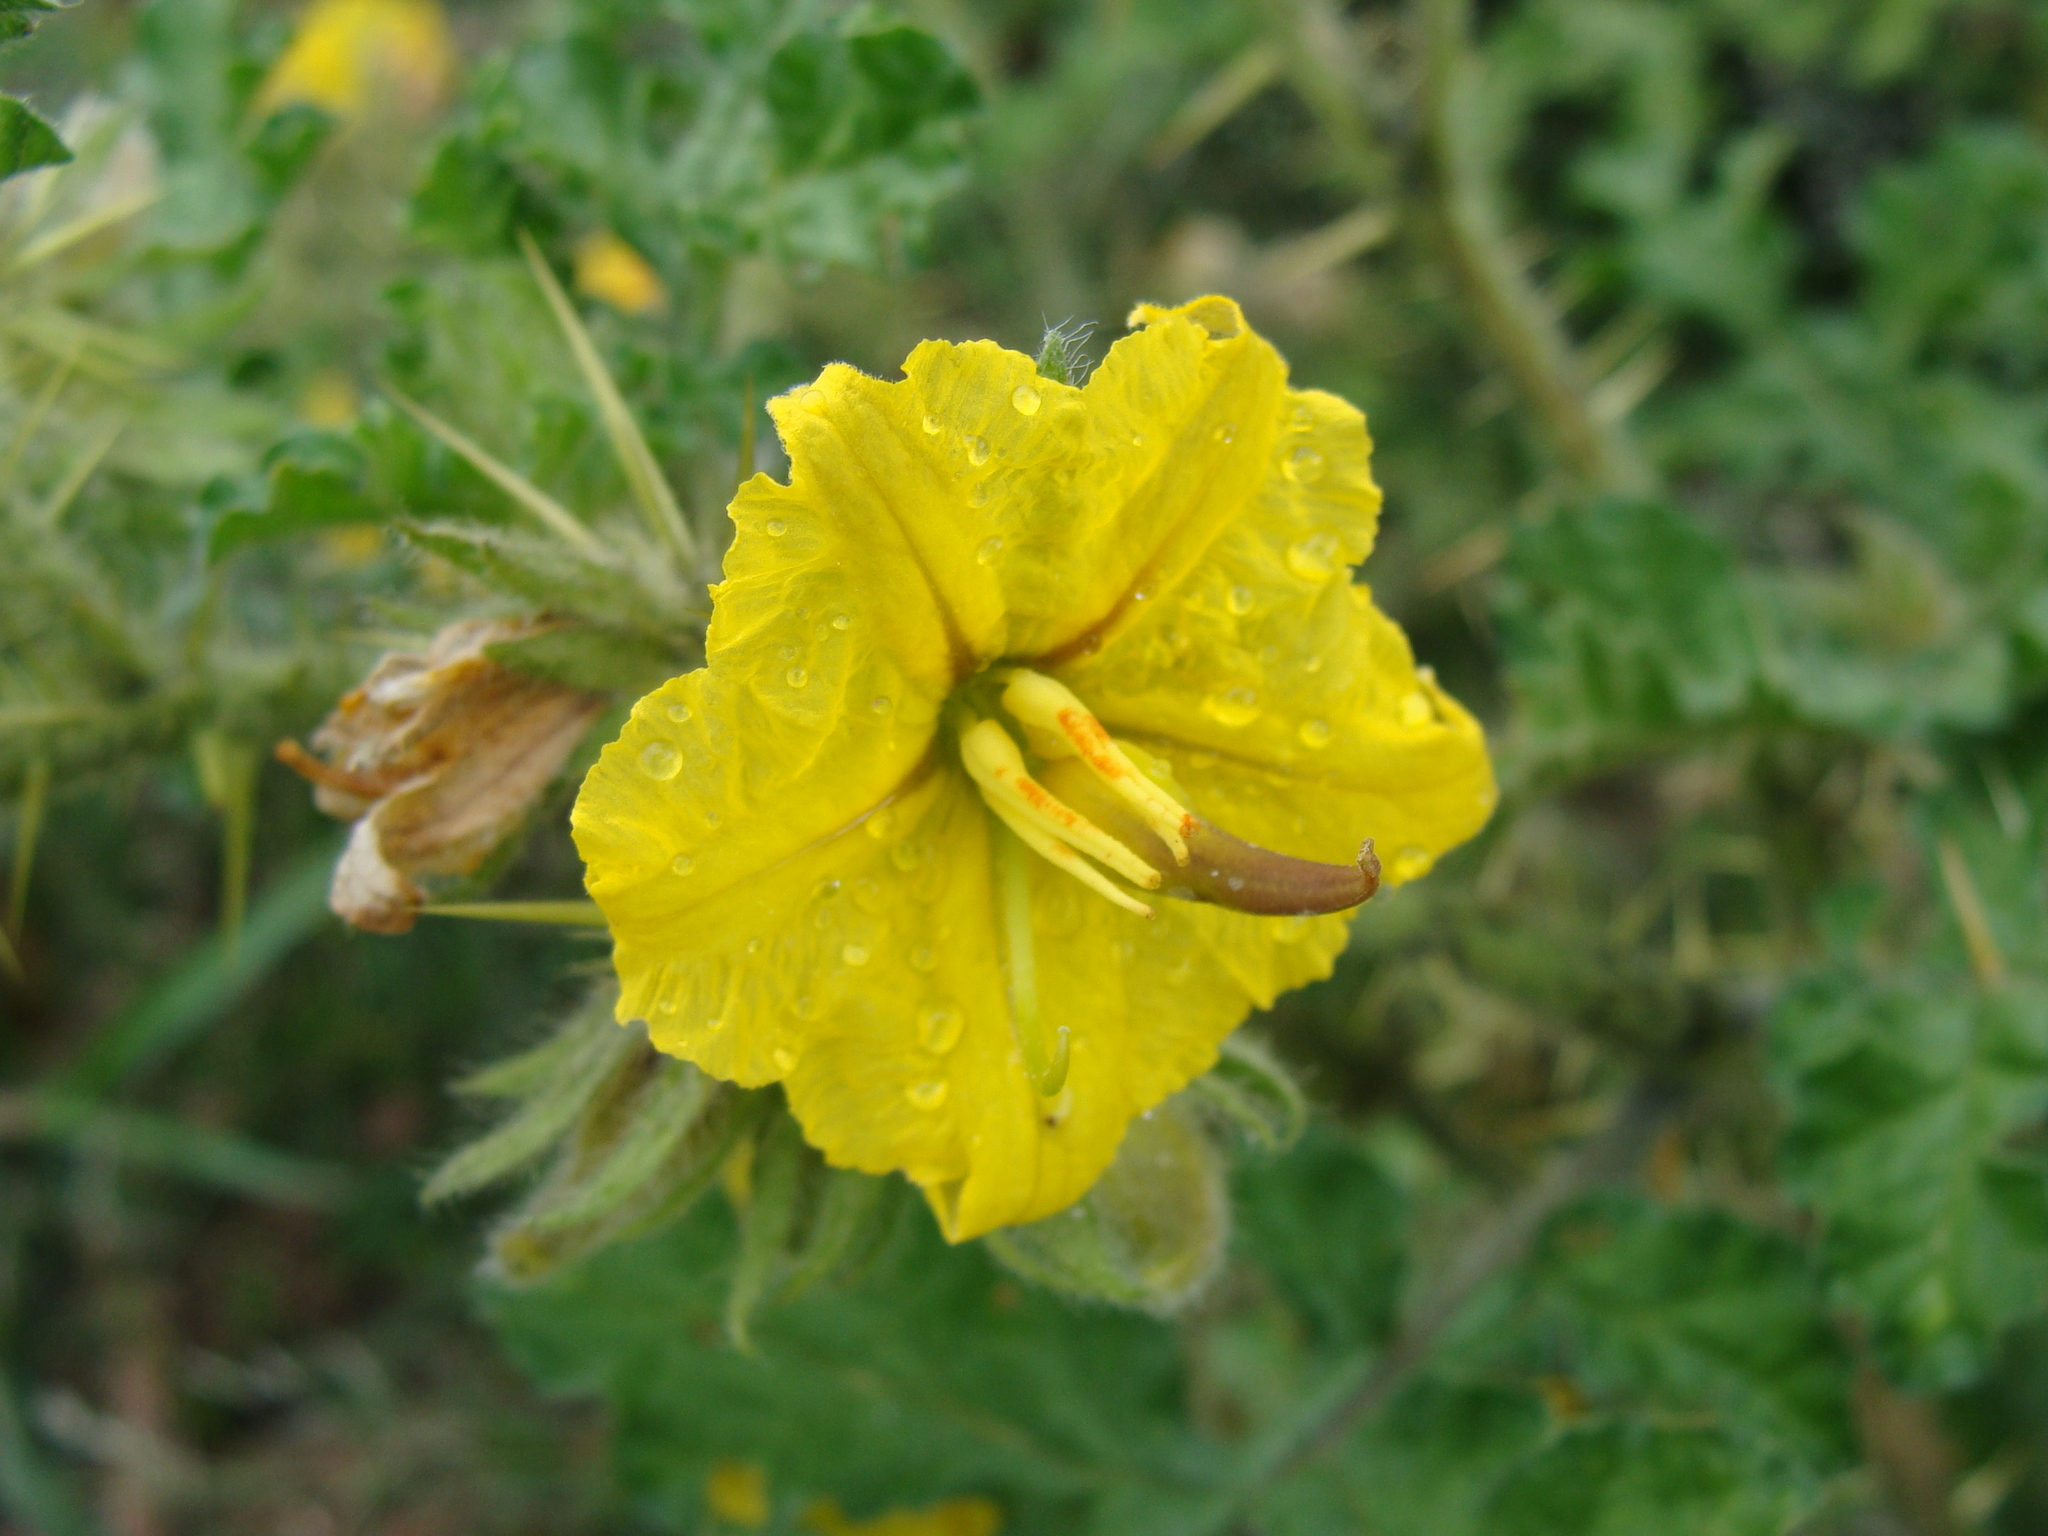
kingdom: Plantae
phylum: Tracheophyta
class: Magnoliopsida
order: Solanales
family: Solanaceae
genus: Solanum
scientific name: Solanum angustifolium
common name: Buffalobur nightshade
